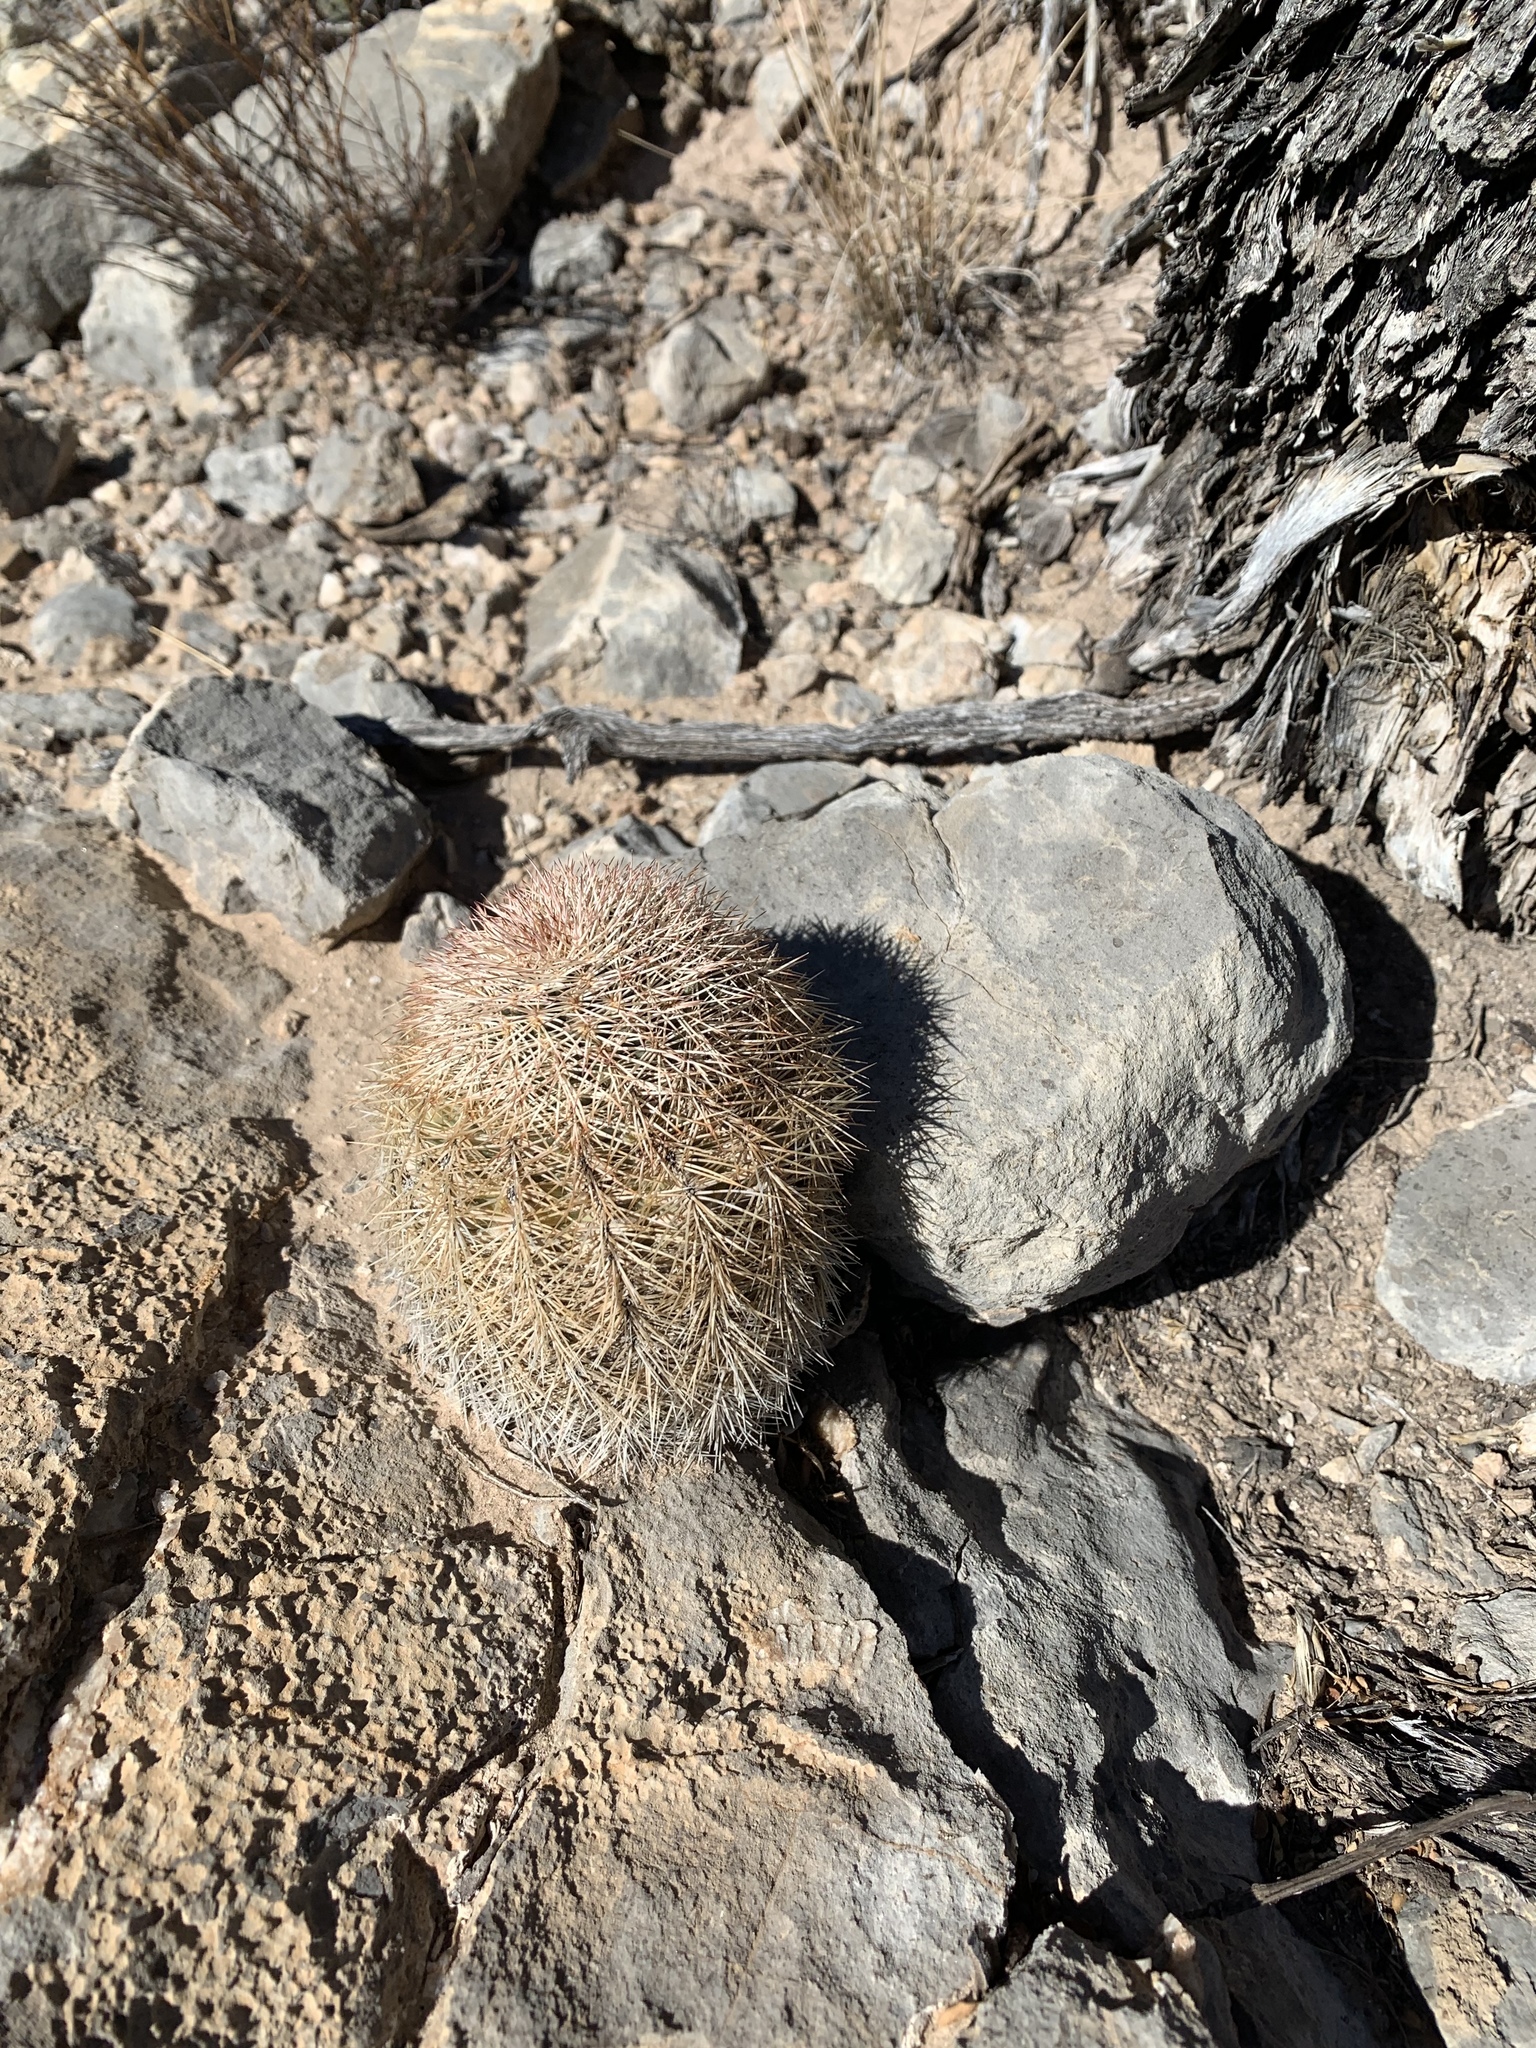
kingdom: Plantae
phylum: Tracheophyta
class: Magnoliopsida
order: Caryophyllales
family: Cactaceae
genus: Echinocereus
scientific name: Echinocereus dasyacanthus
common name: Spiny hedgehog cactus
